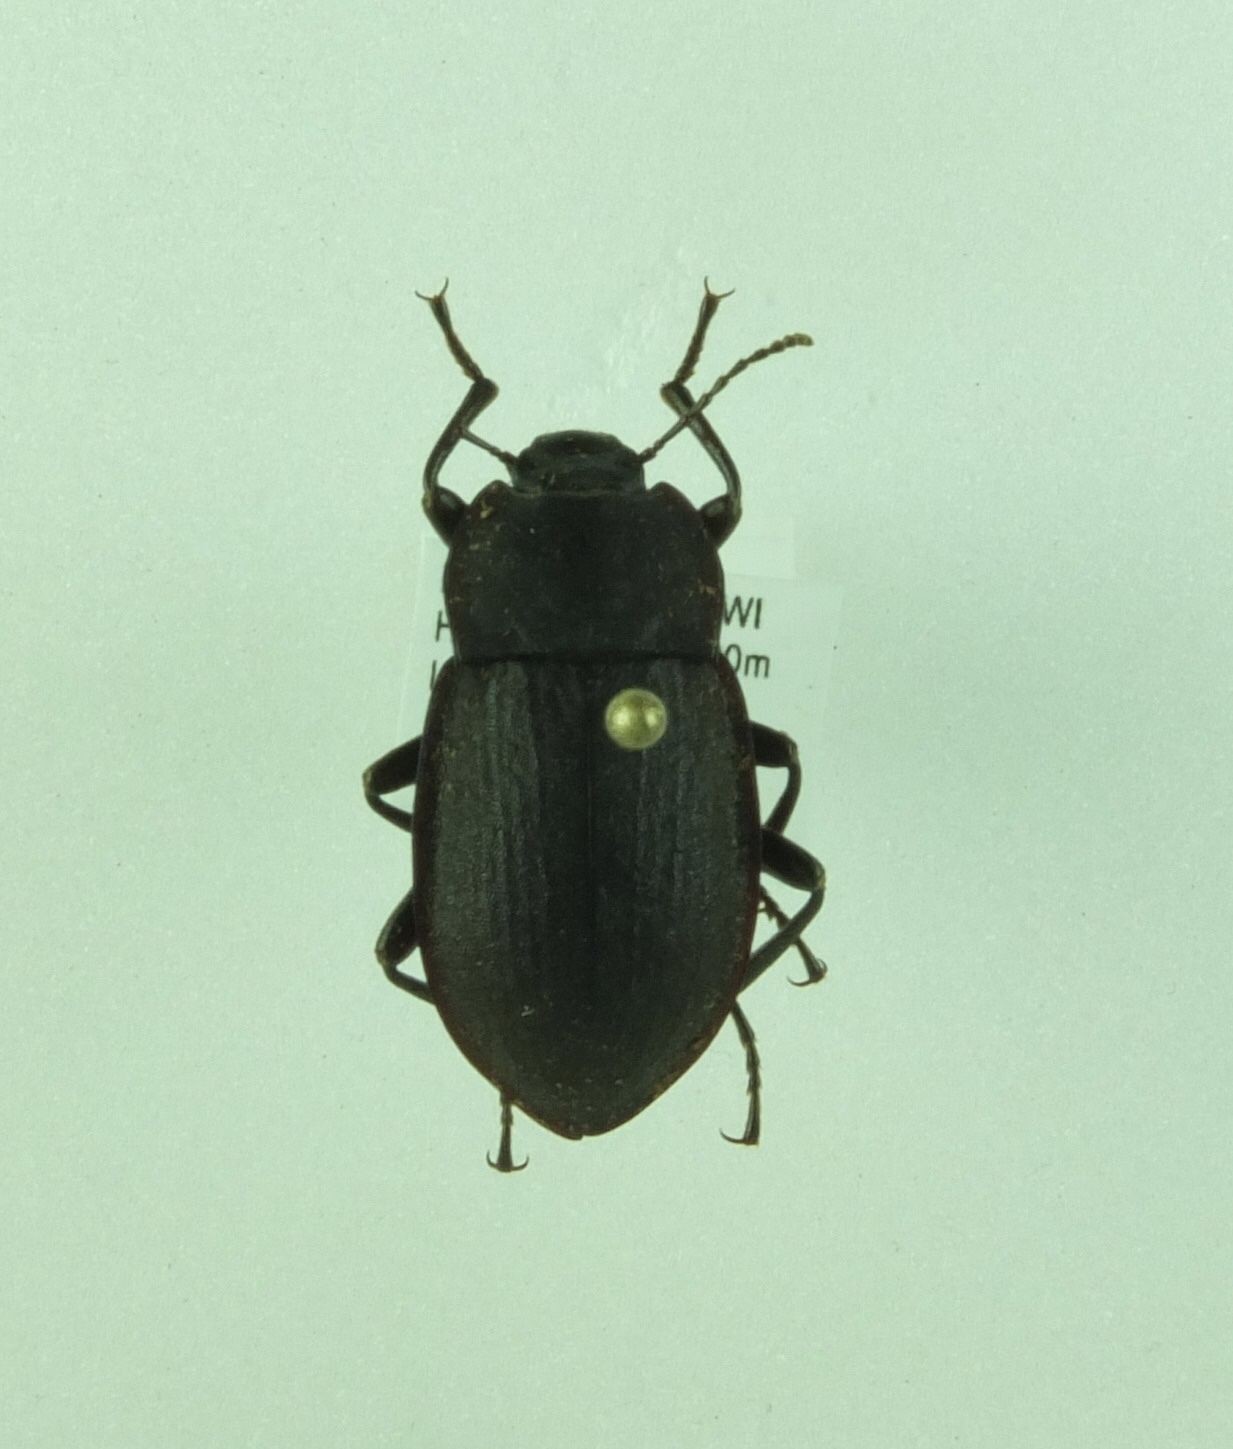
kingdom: Animalia
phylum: Arthropoda
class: Insecta
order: Coleoptera
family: Tenebrionidae
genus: Mimopeus
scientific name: Mimopeus
